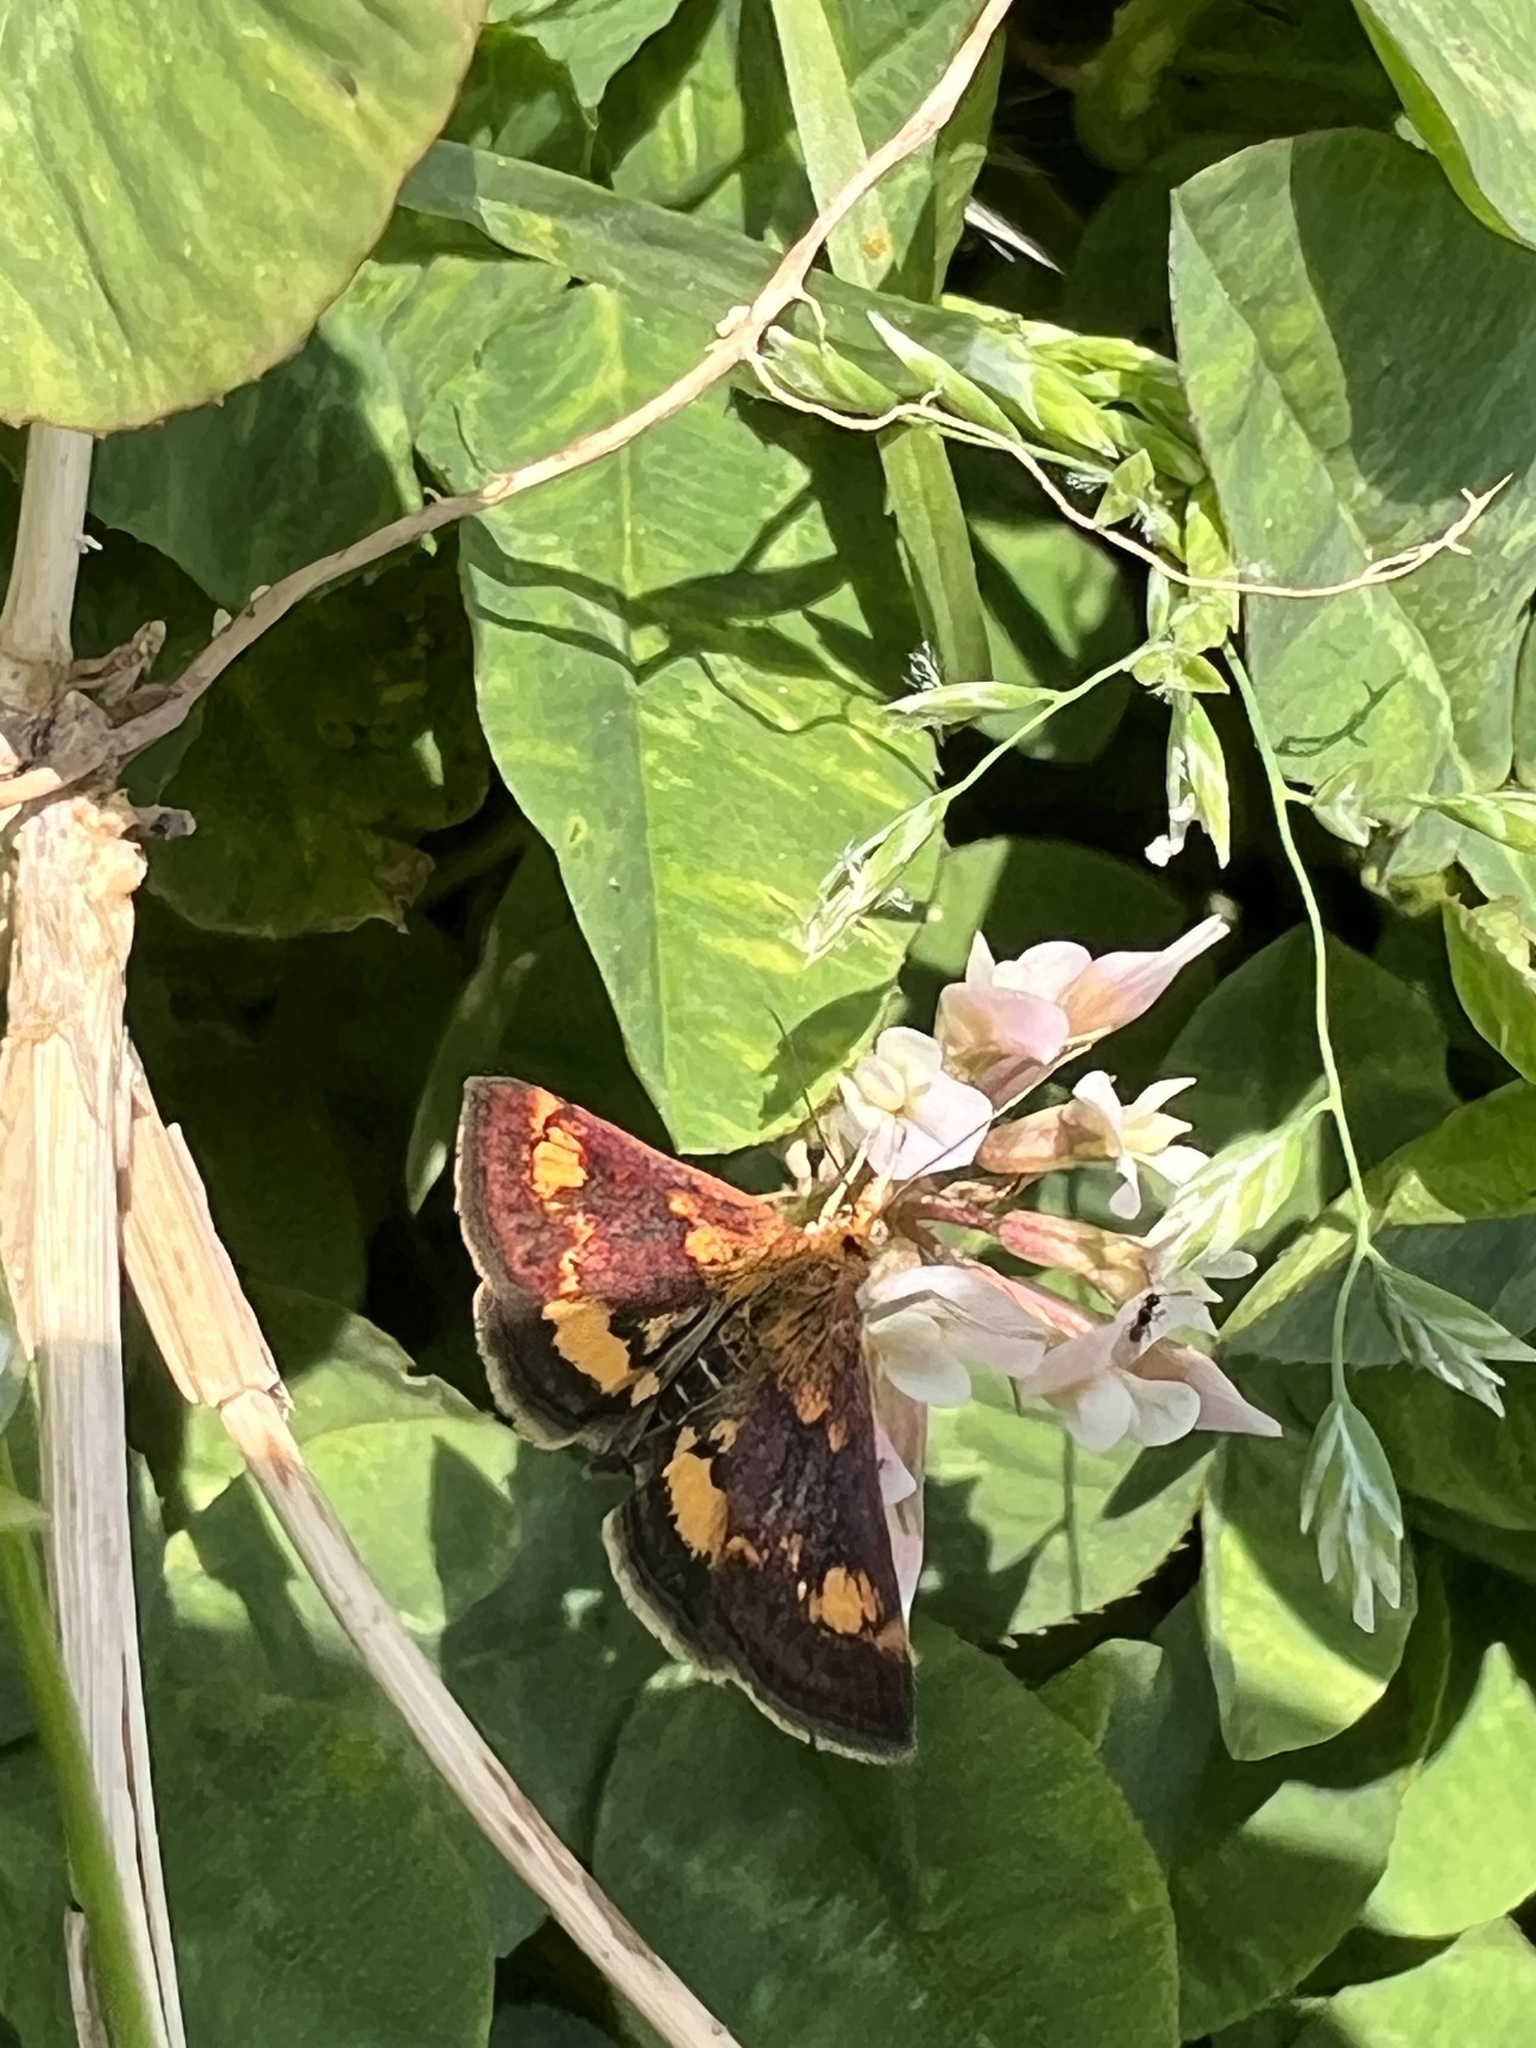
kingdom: Animalia
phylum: Arthropoda
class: Insecta
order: Lepidoptera
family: Crambidae
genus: Pyrausta
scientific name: Pyrausta orphisalis
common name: Orange mint moth
